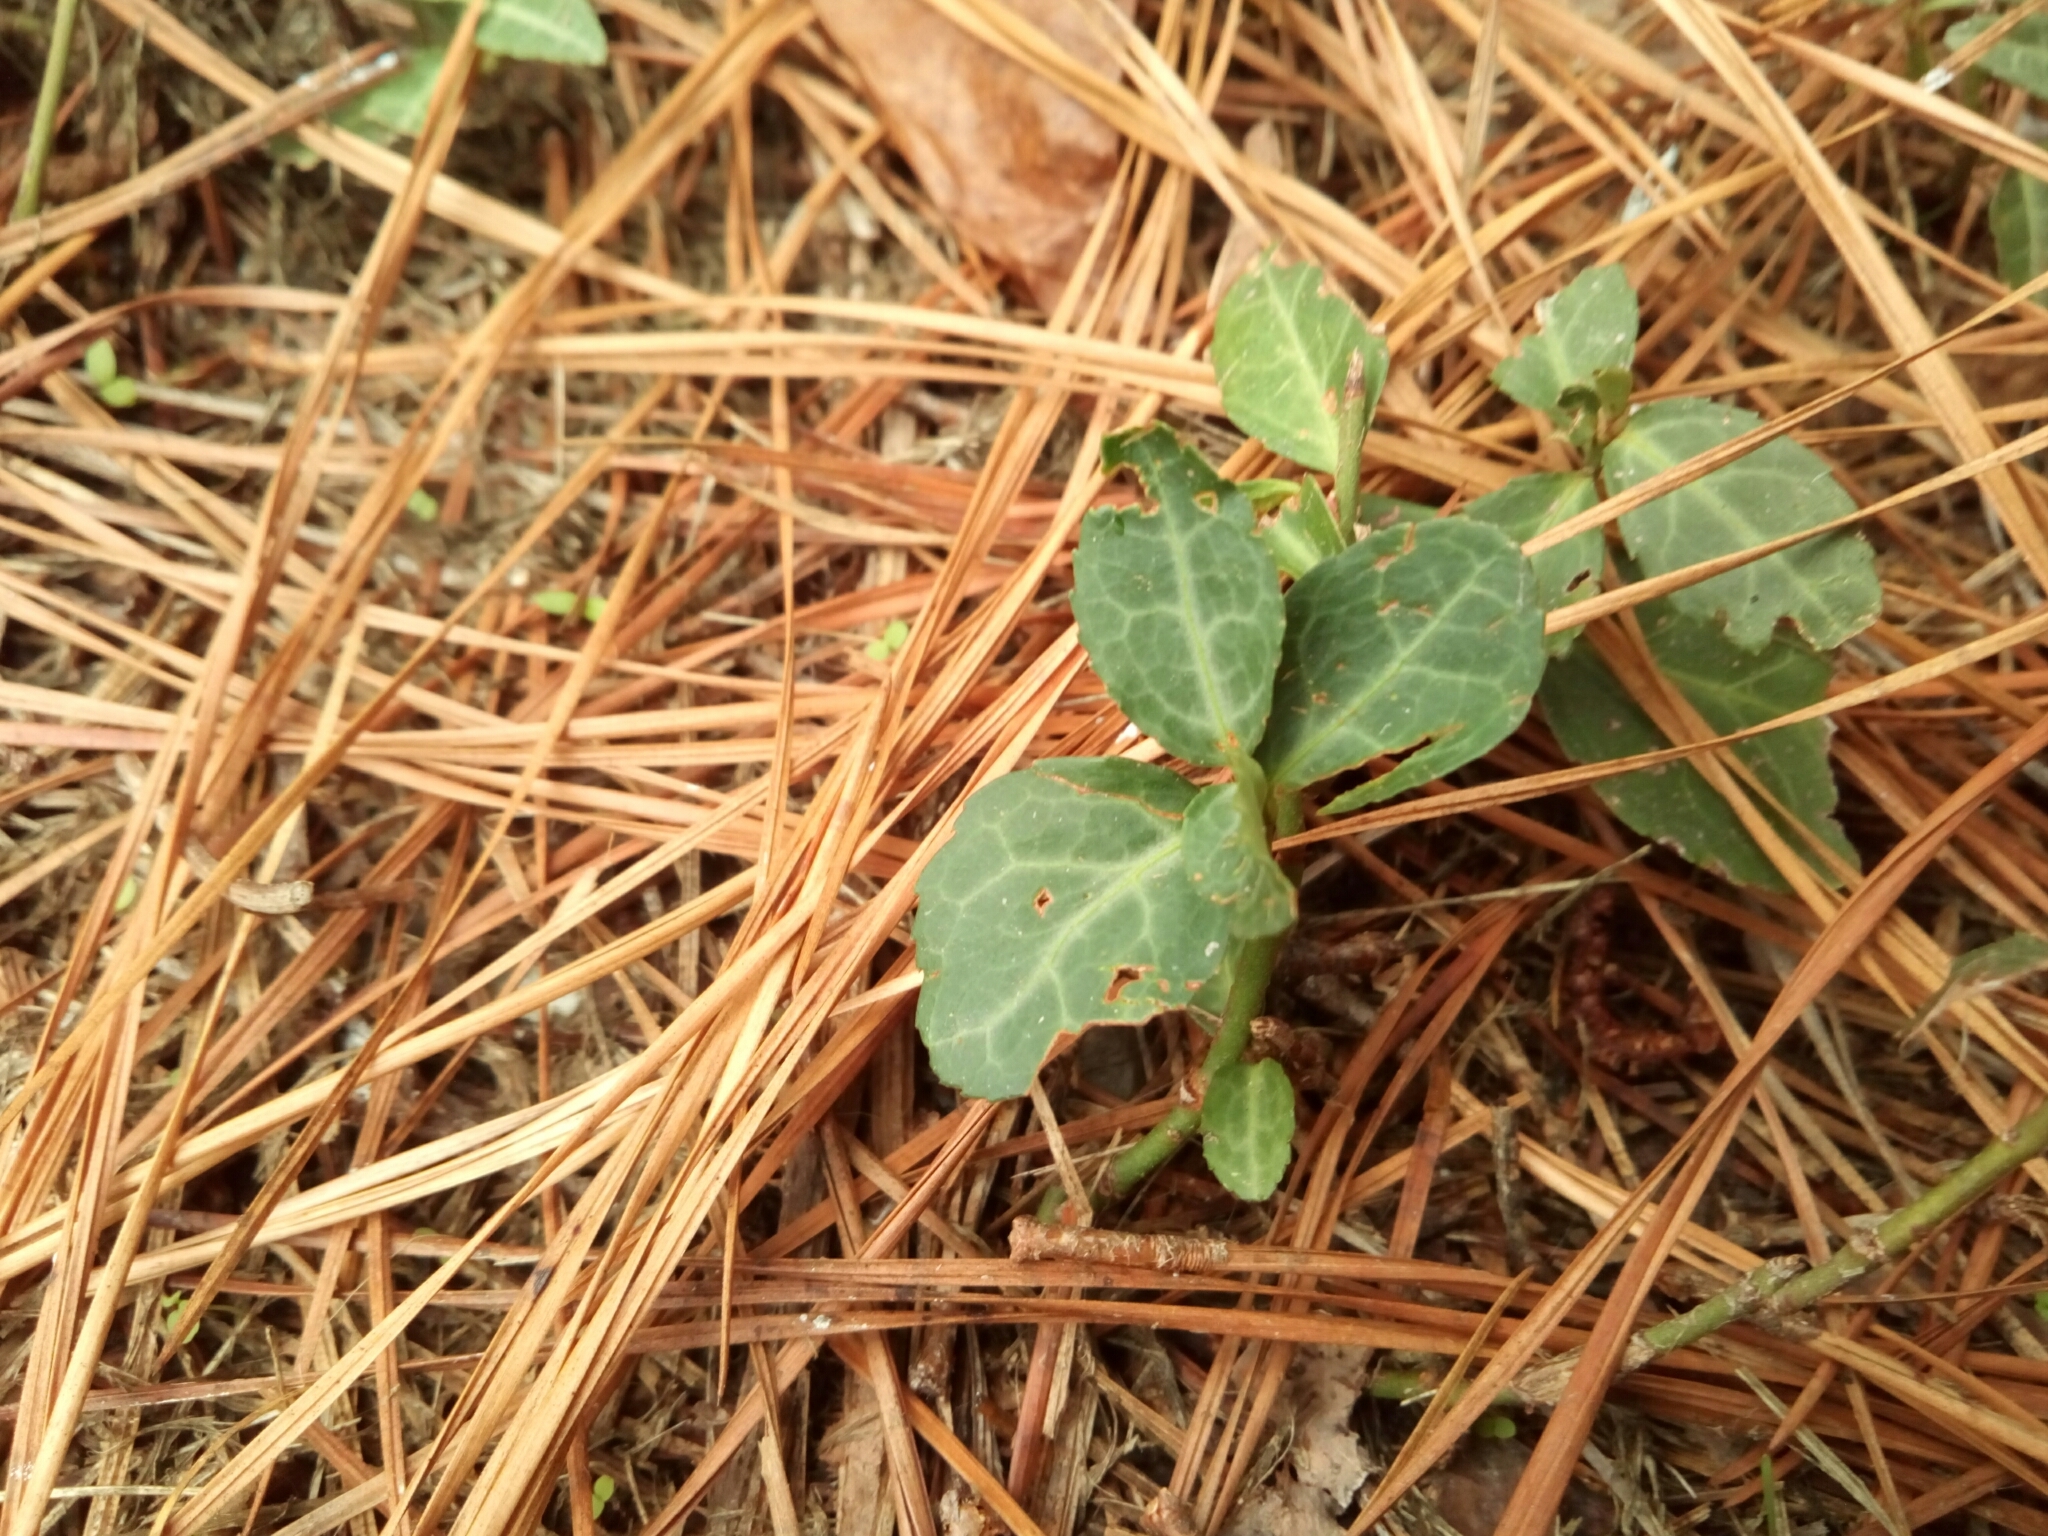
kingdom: Plantae
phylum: Tracheophyta
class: Magnoliopsida
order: Ericales
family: Ericaceae
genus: Chimaphila
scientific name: Chimaphila maculata
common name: Spotted pipsissewa
